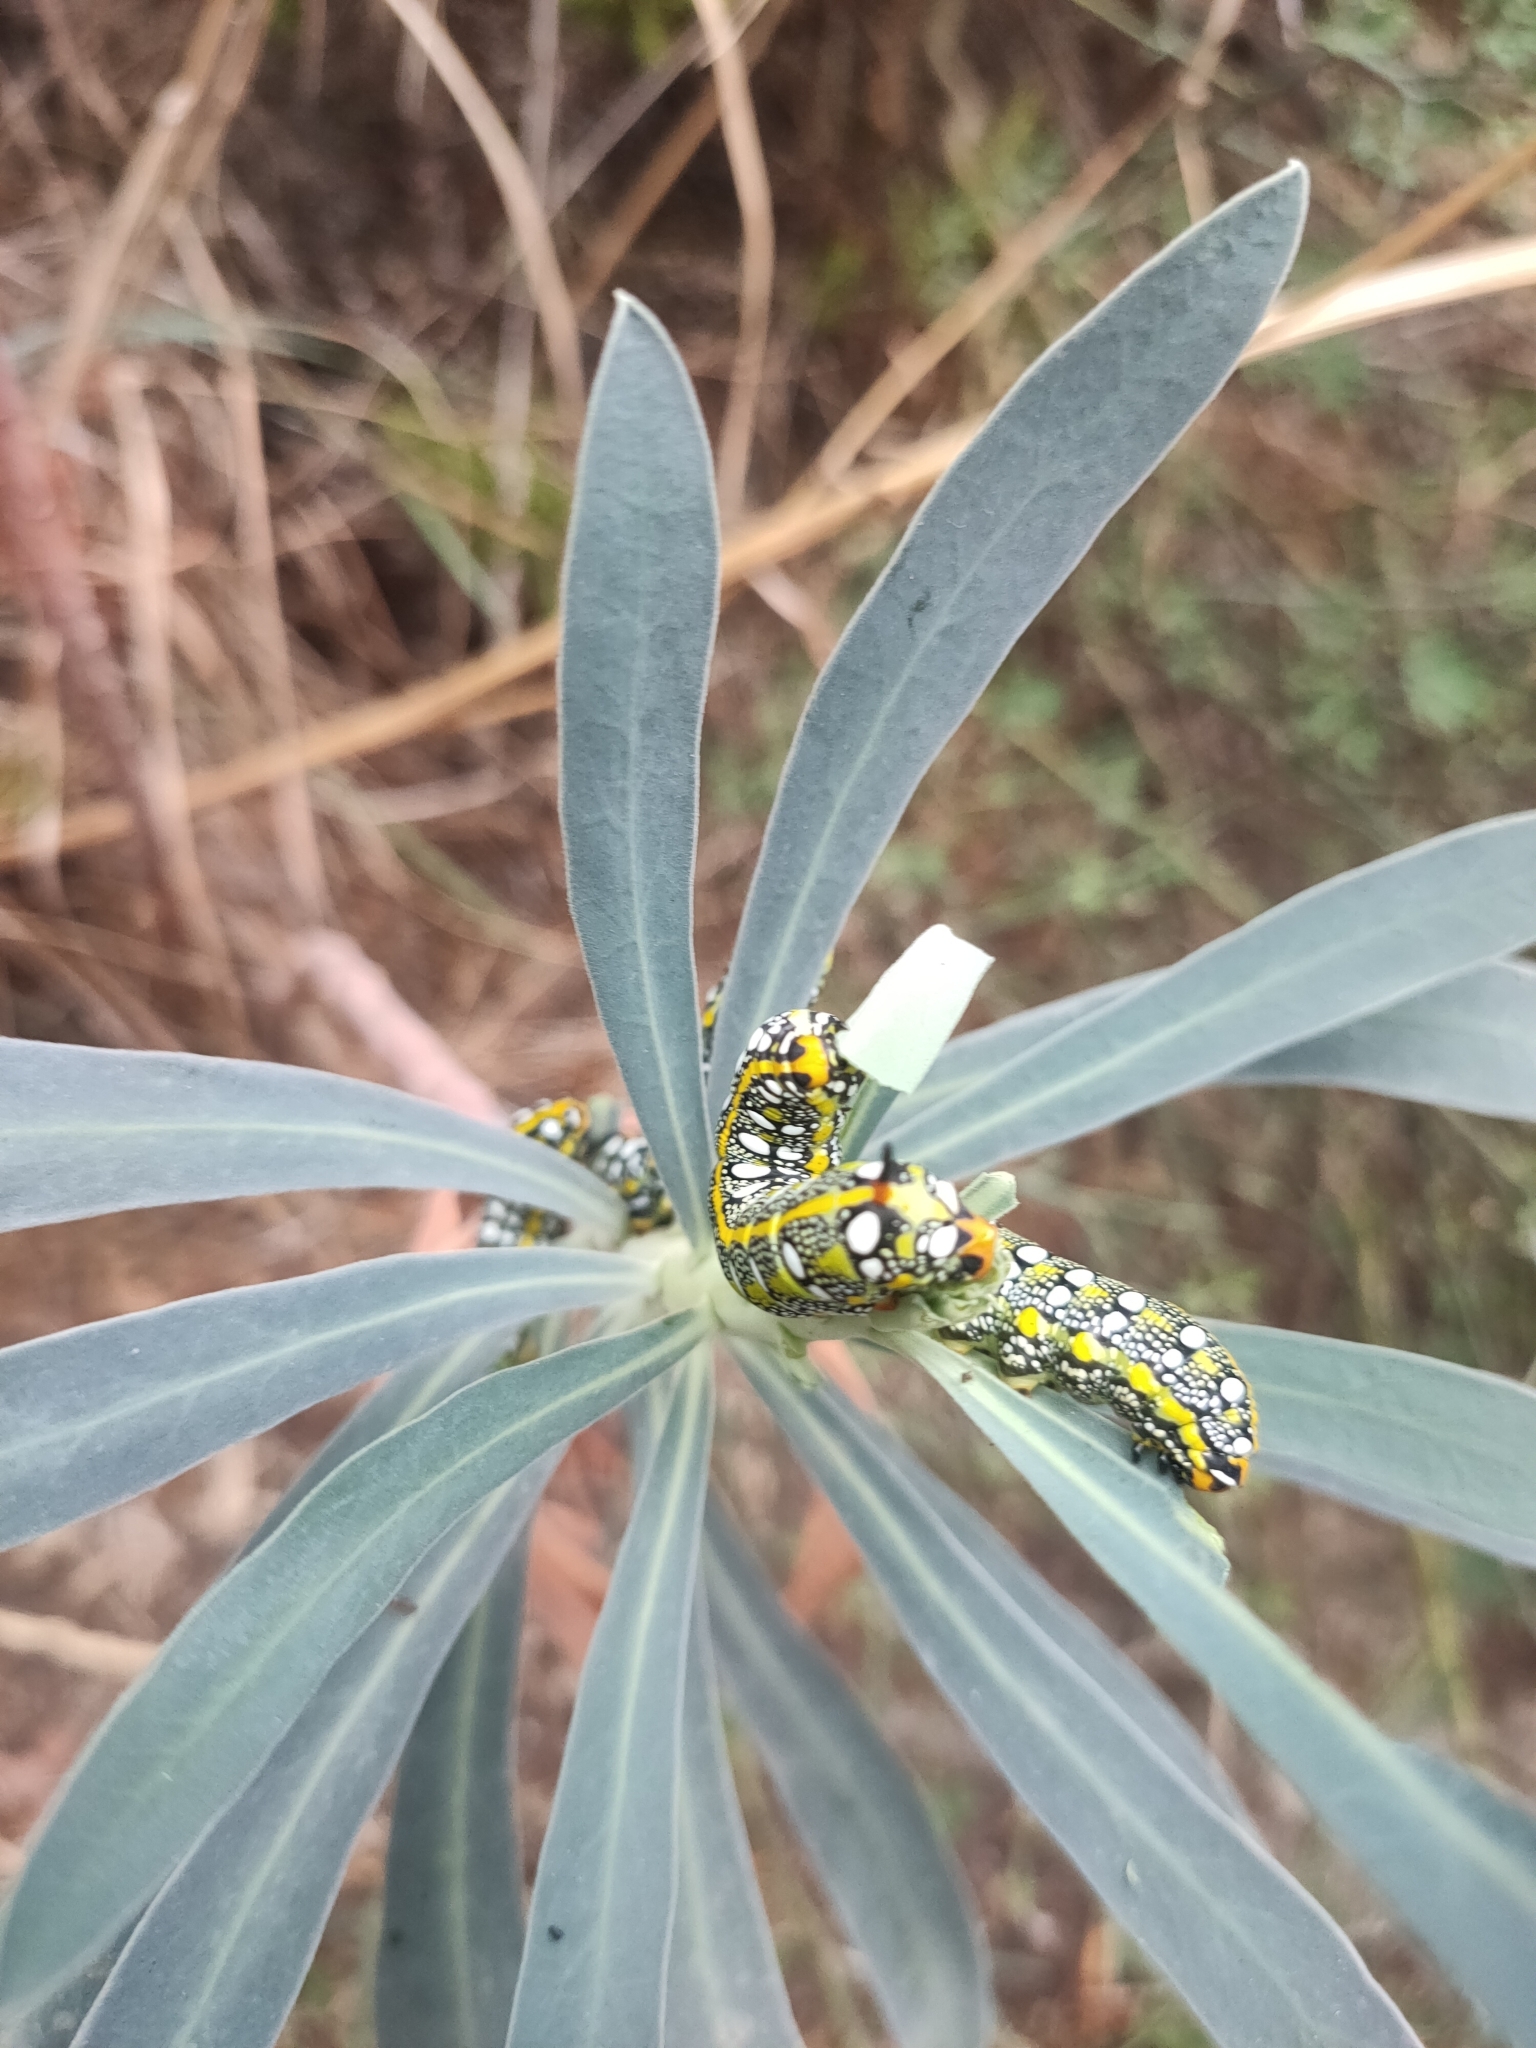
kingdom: Animalia
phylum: Arthropoda
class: Insecta
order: Lepidoptera
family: Sphingidae
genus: Hyles
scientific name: Hyles euphorbiae
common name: Spurge hawk-moth
